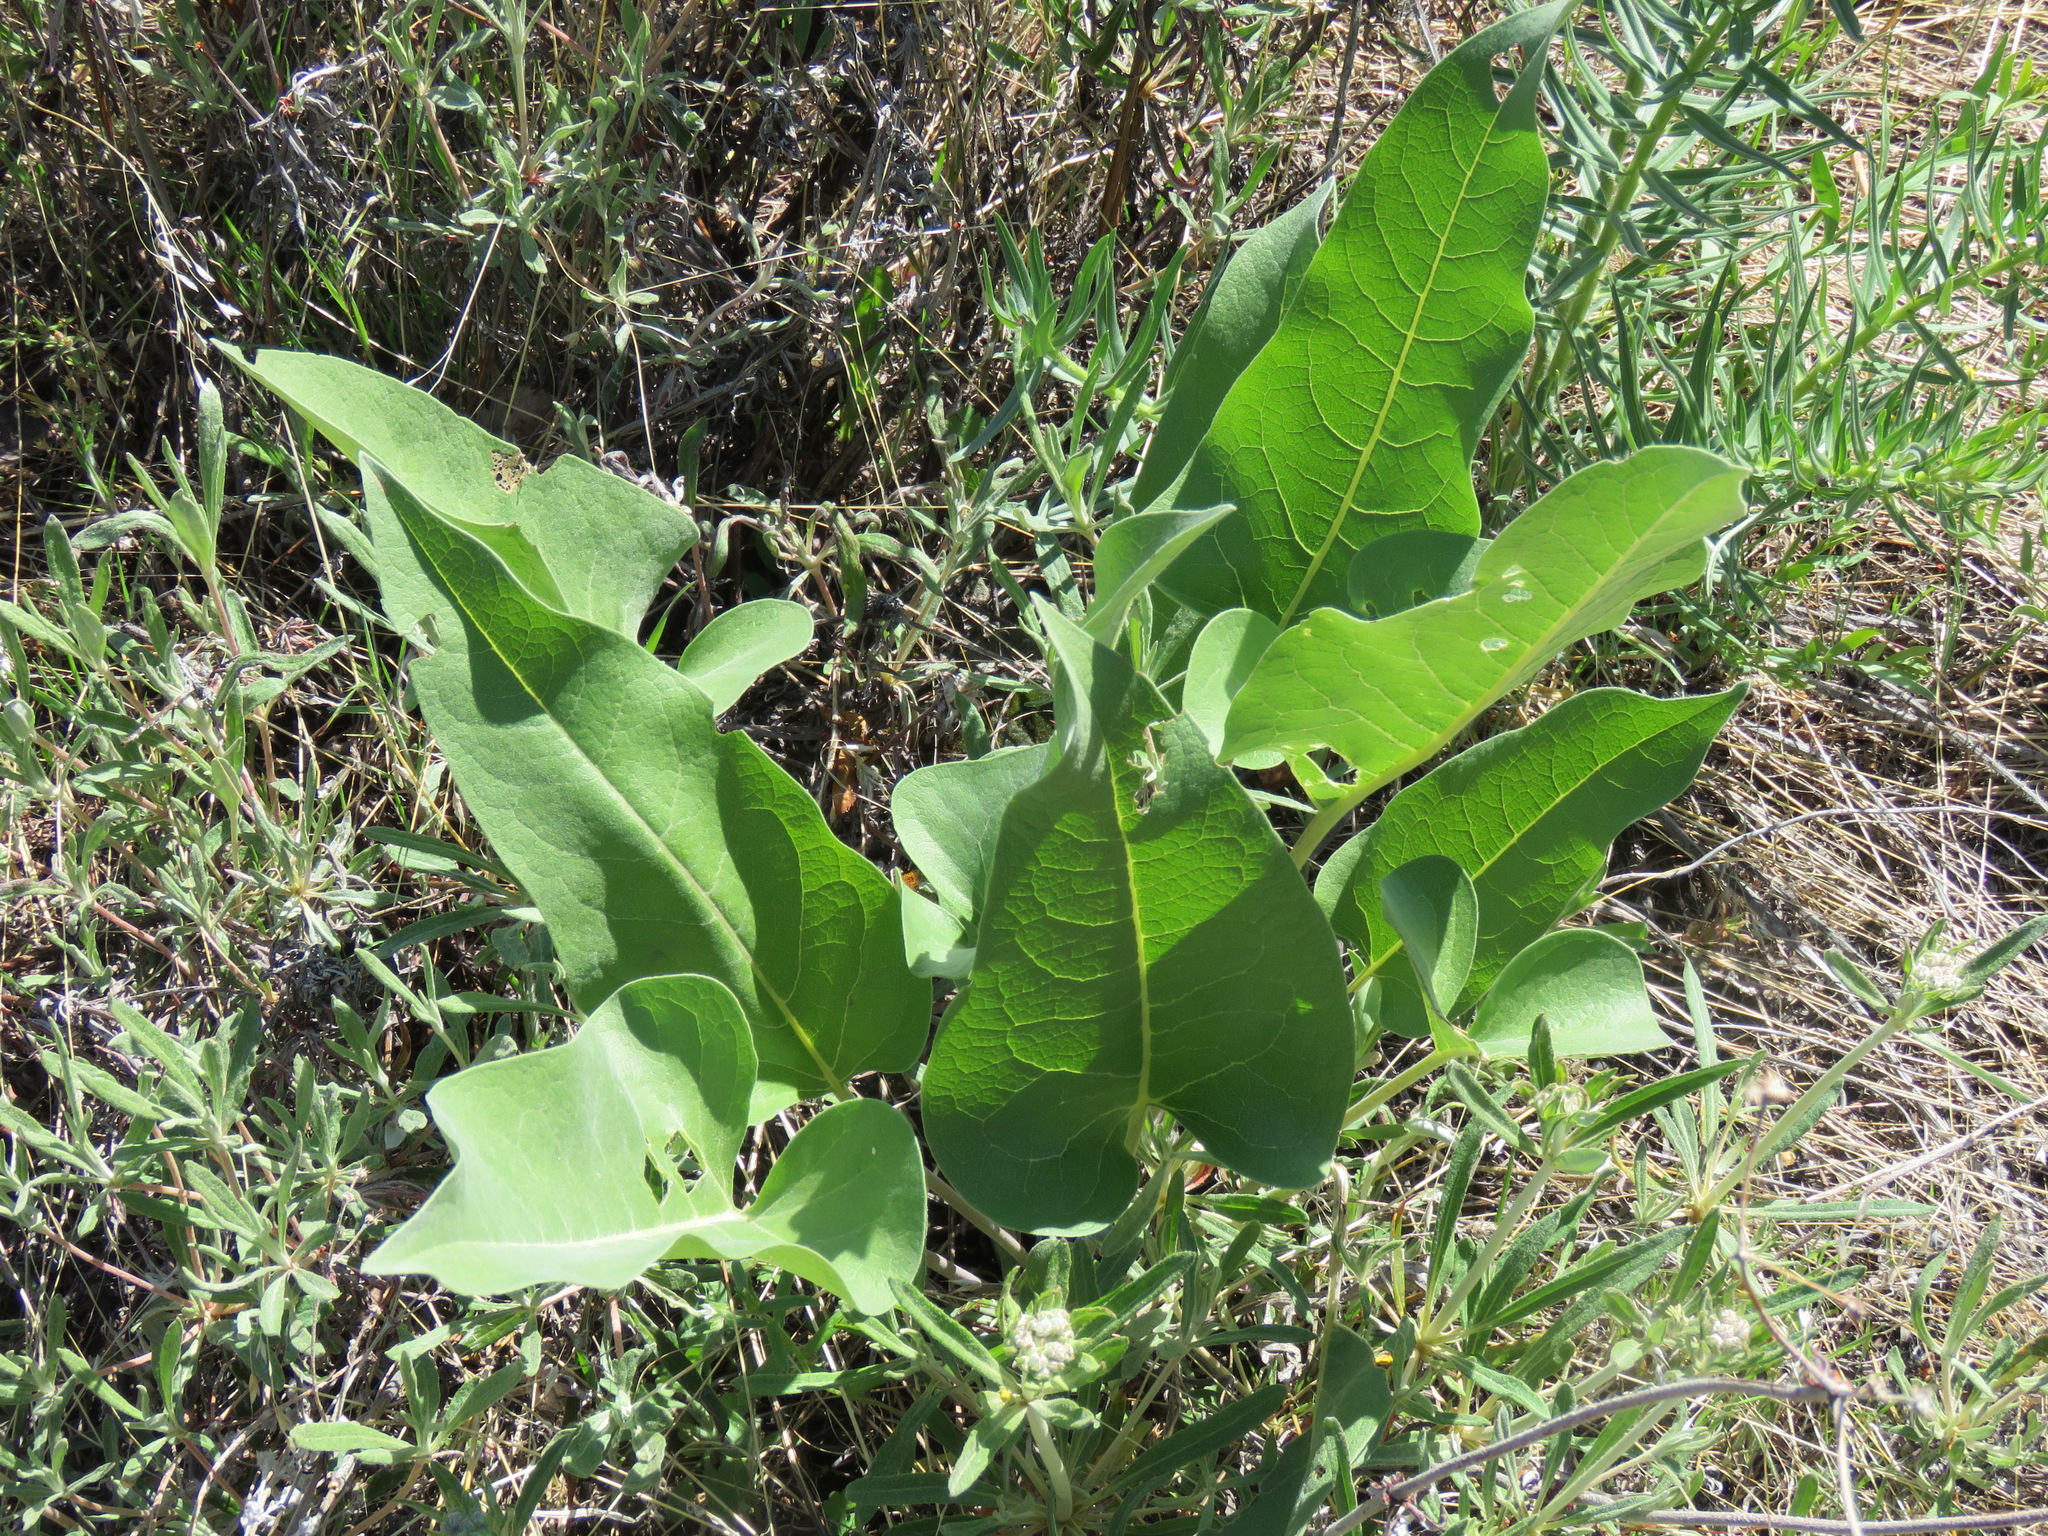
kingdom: Plantae
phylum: Tracheophyta
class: Magnoliopsida
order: Asterales
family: Asteraceae
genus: Wyethia
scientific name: Wyethia sagittata
